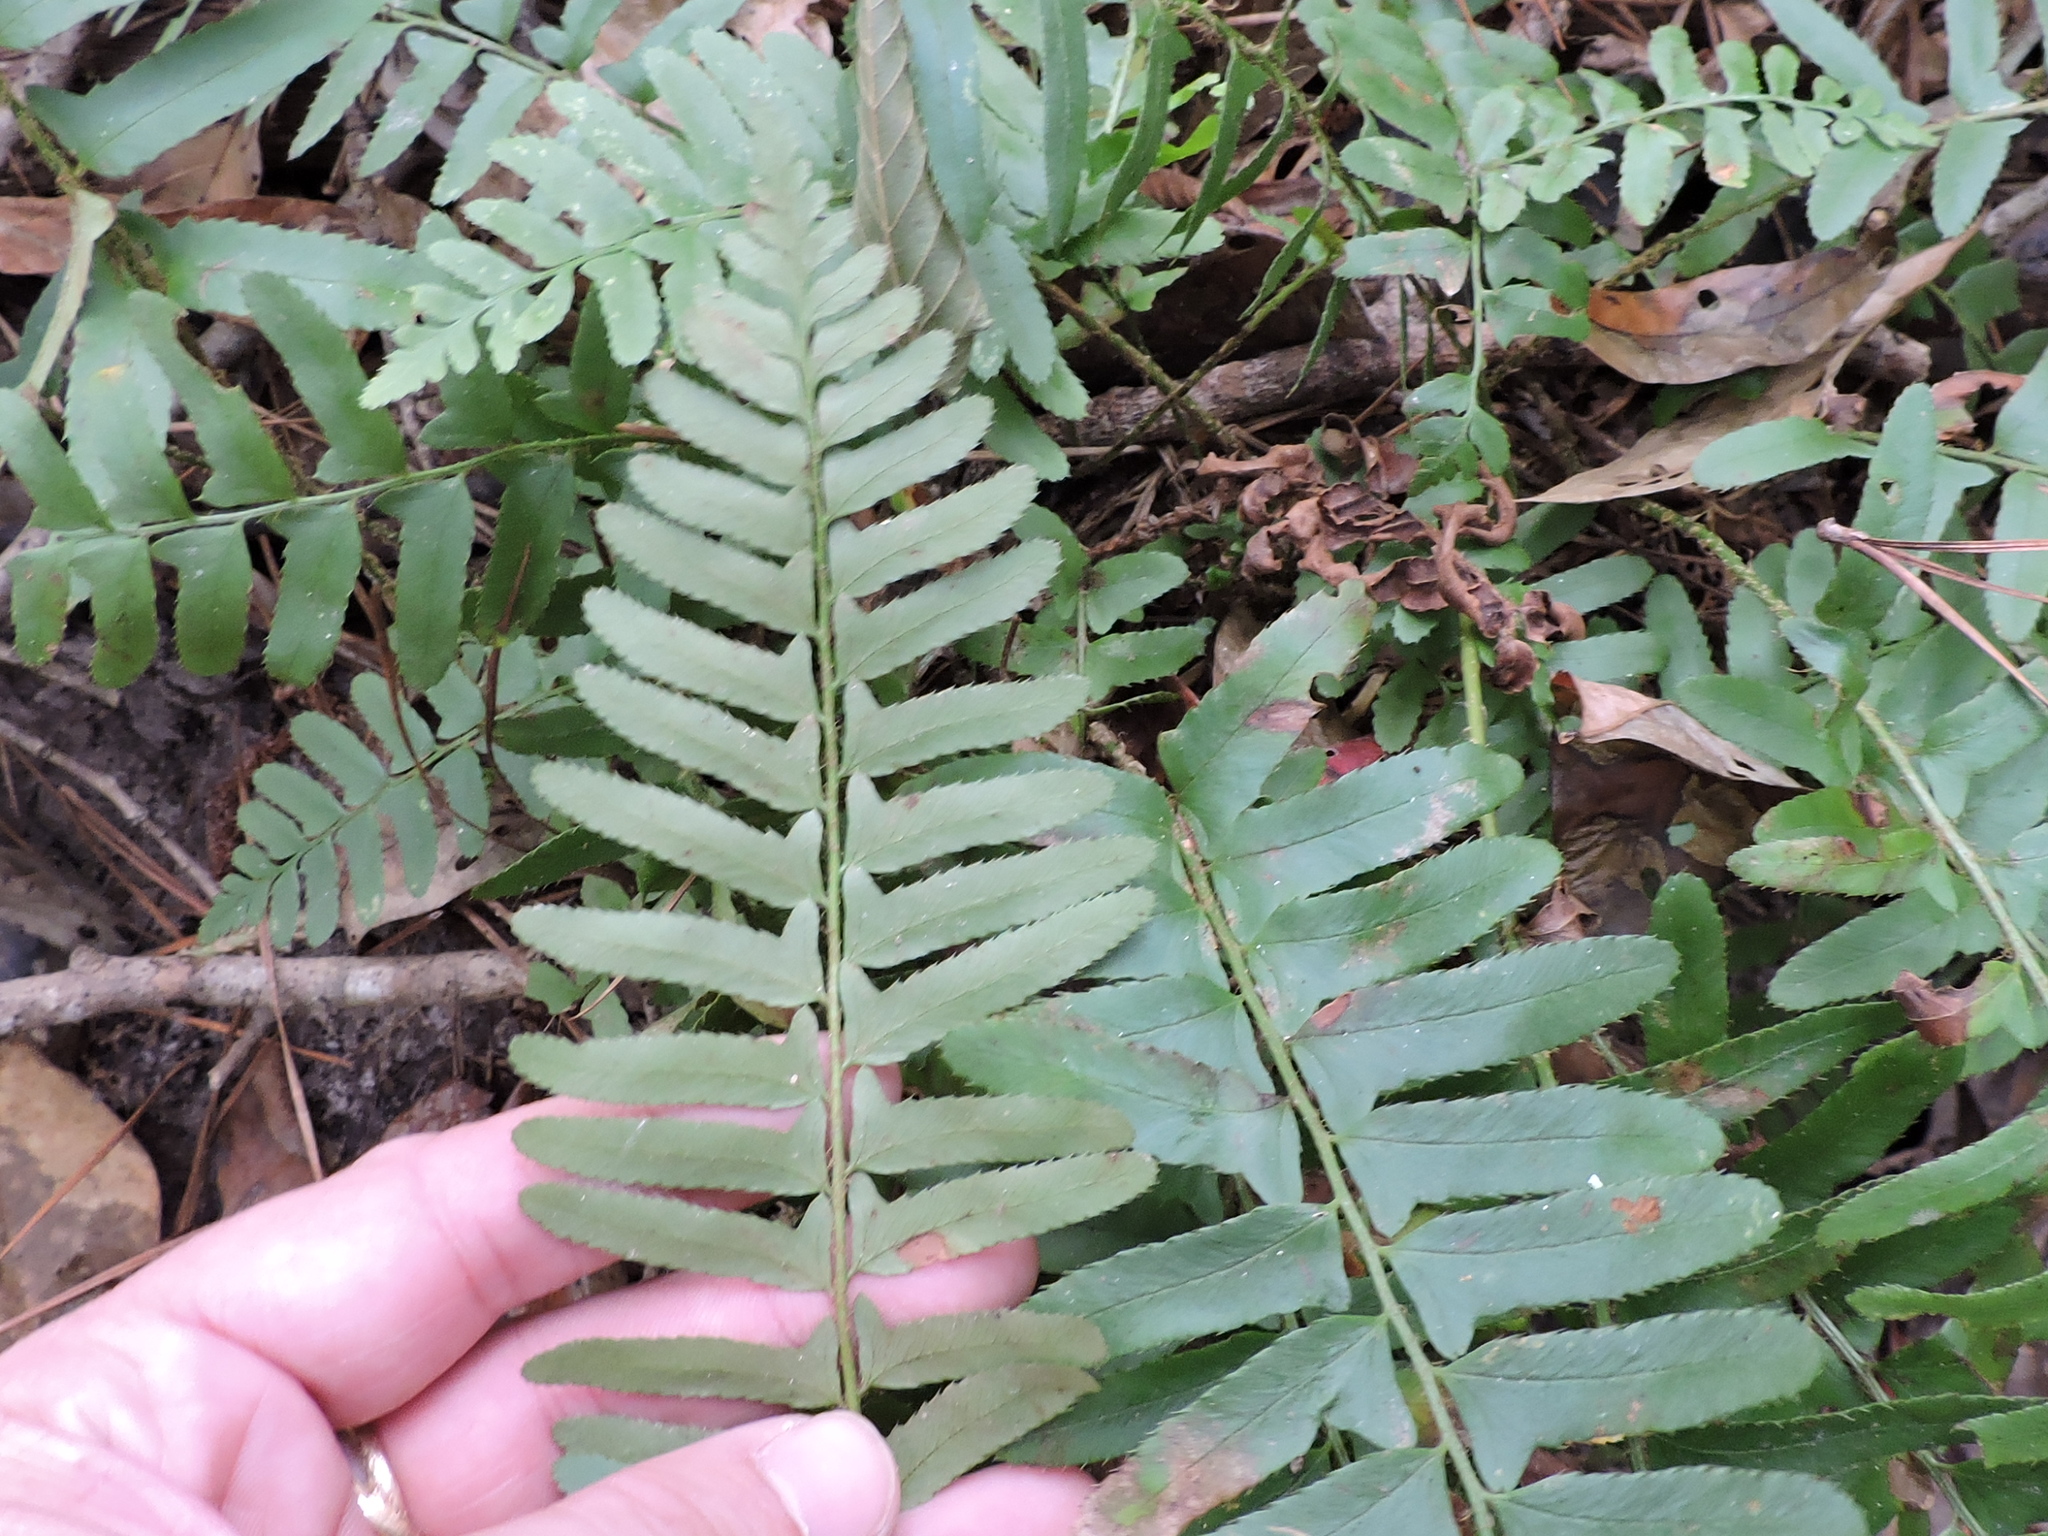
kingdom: Plantae
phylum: Tracheophyta
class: Polypodiopsida
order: Polypodiales
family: Dryopteridaceae
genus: Polystichum
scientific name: Polystichum acrostichoides
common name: Christmas fern
